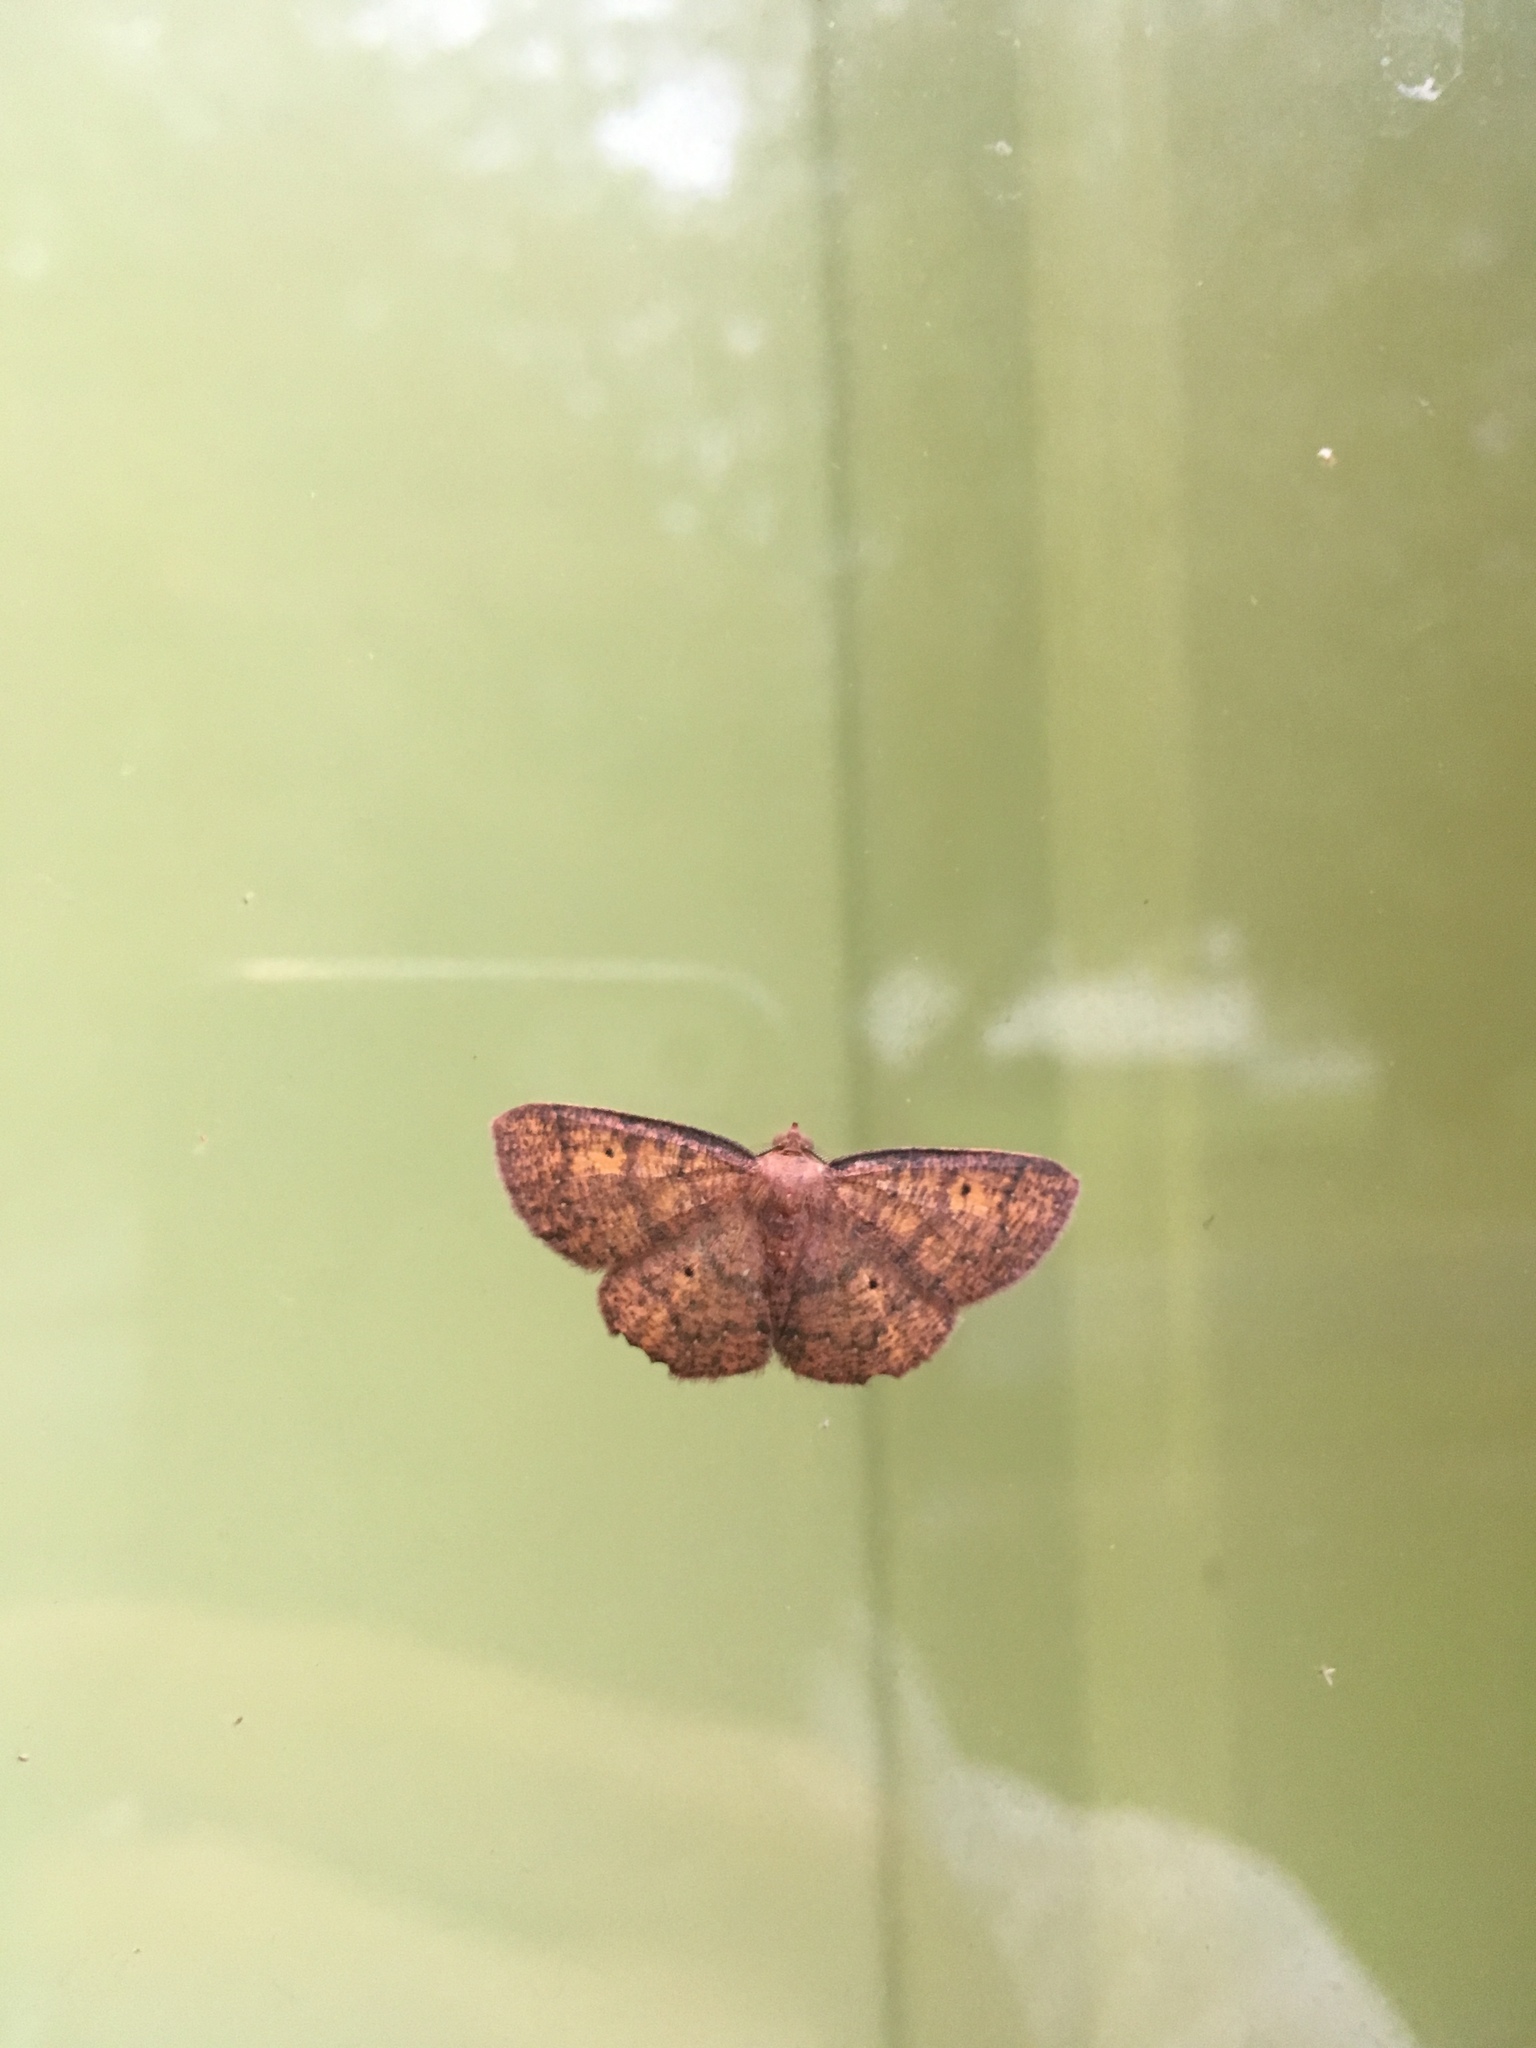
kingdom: Animalia
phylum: Arthropoda
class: Insecta
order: Lepidoptera
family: Geometridae
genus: Ilexia
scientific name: Ilexia intractata
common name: Black-dotted ruddy moth
